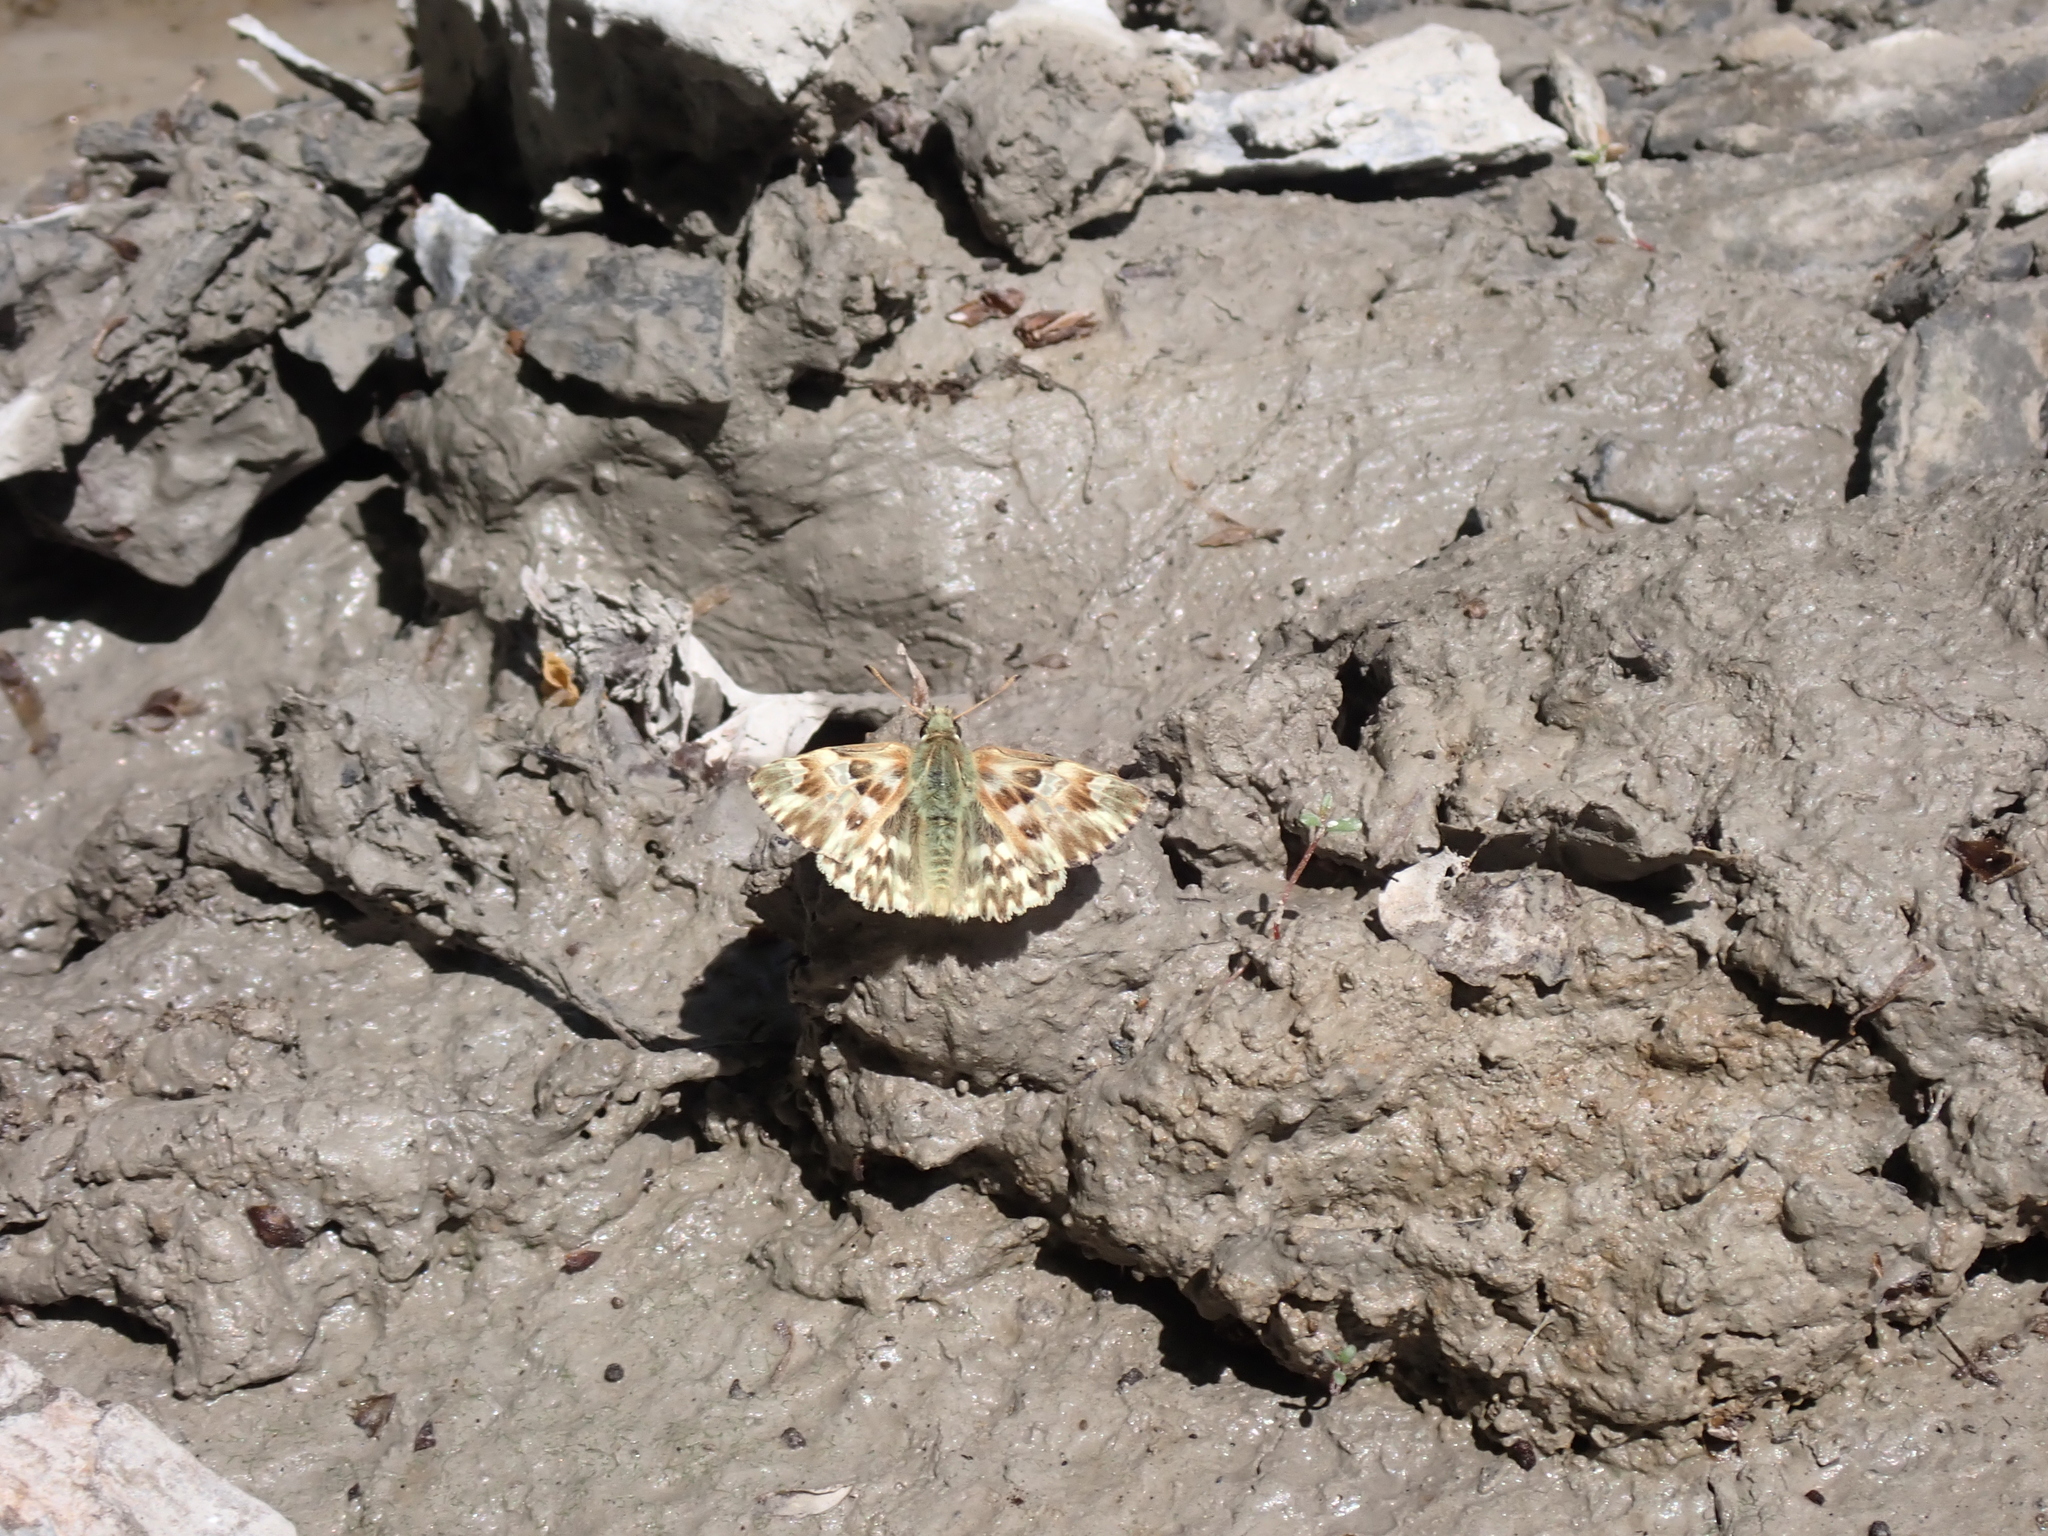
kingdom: Animalia
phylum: Arthropoda
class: Insecta
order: Lepidoptera
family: Hesperiidae
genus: Carcharodus
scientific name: Carcharodus lavatherae
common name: Marbled skipper
